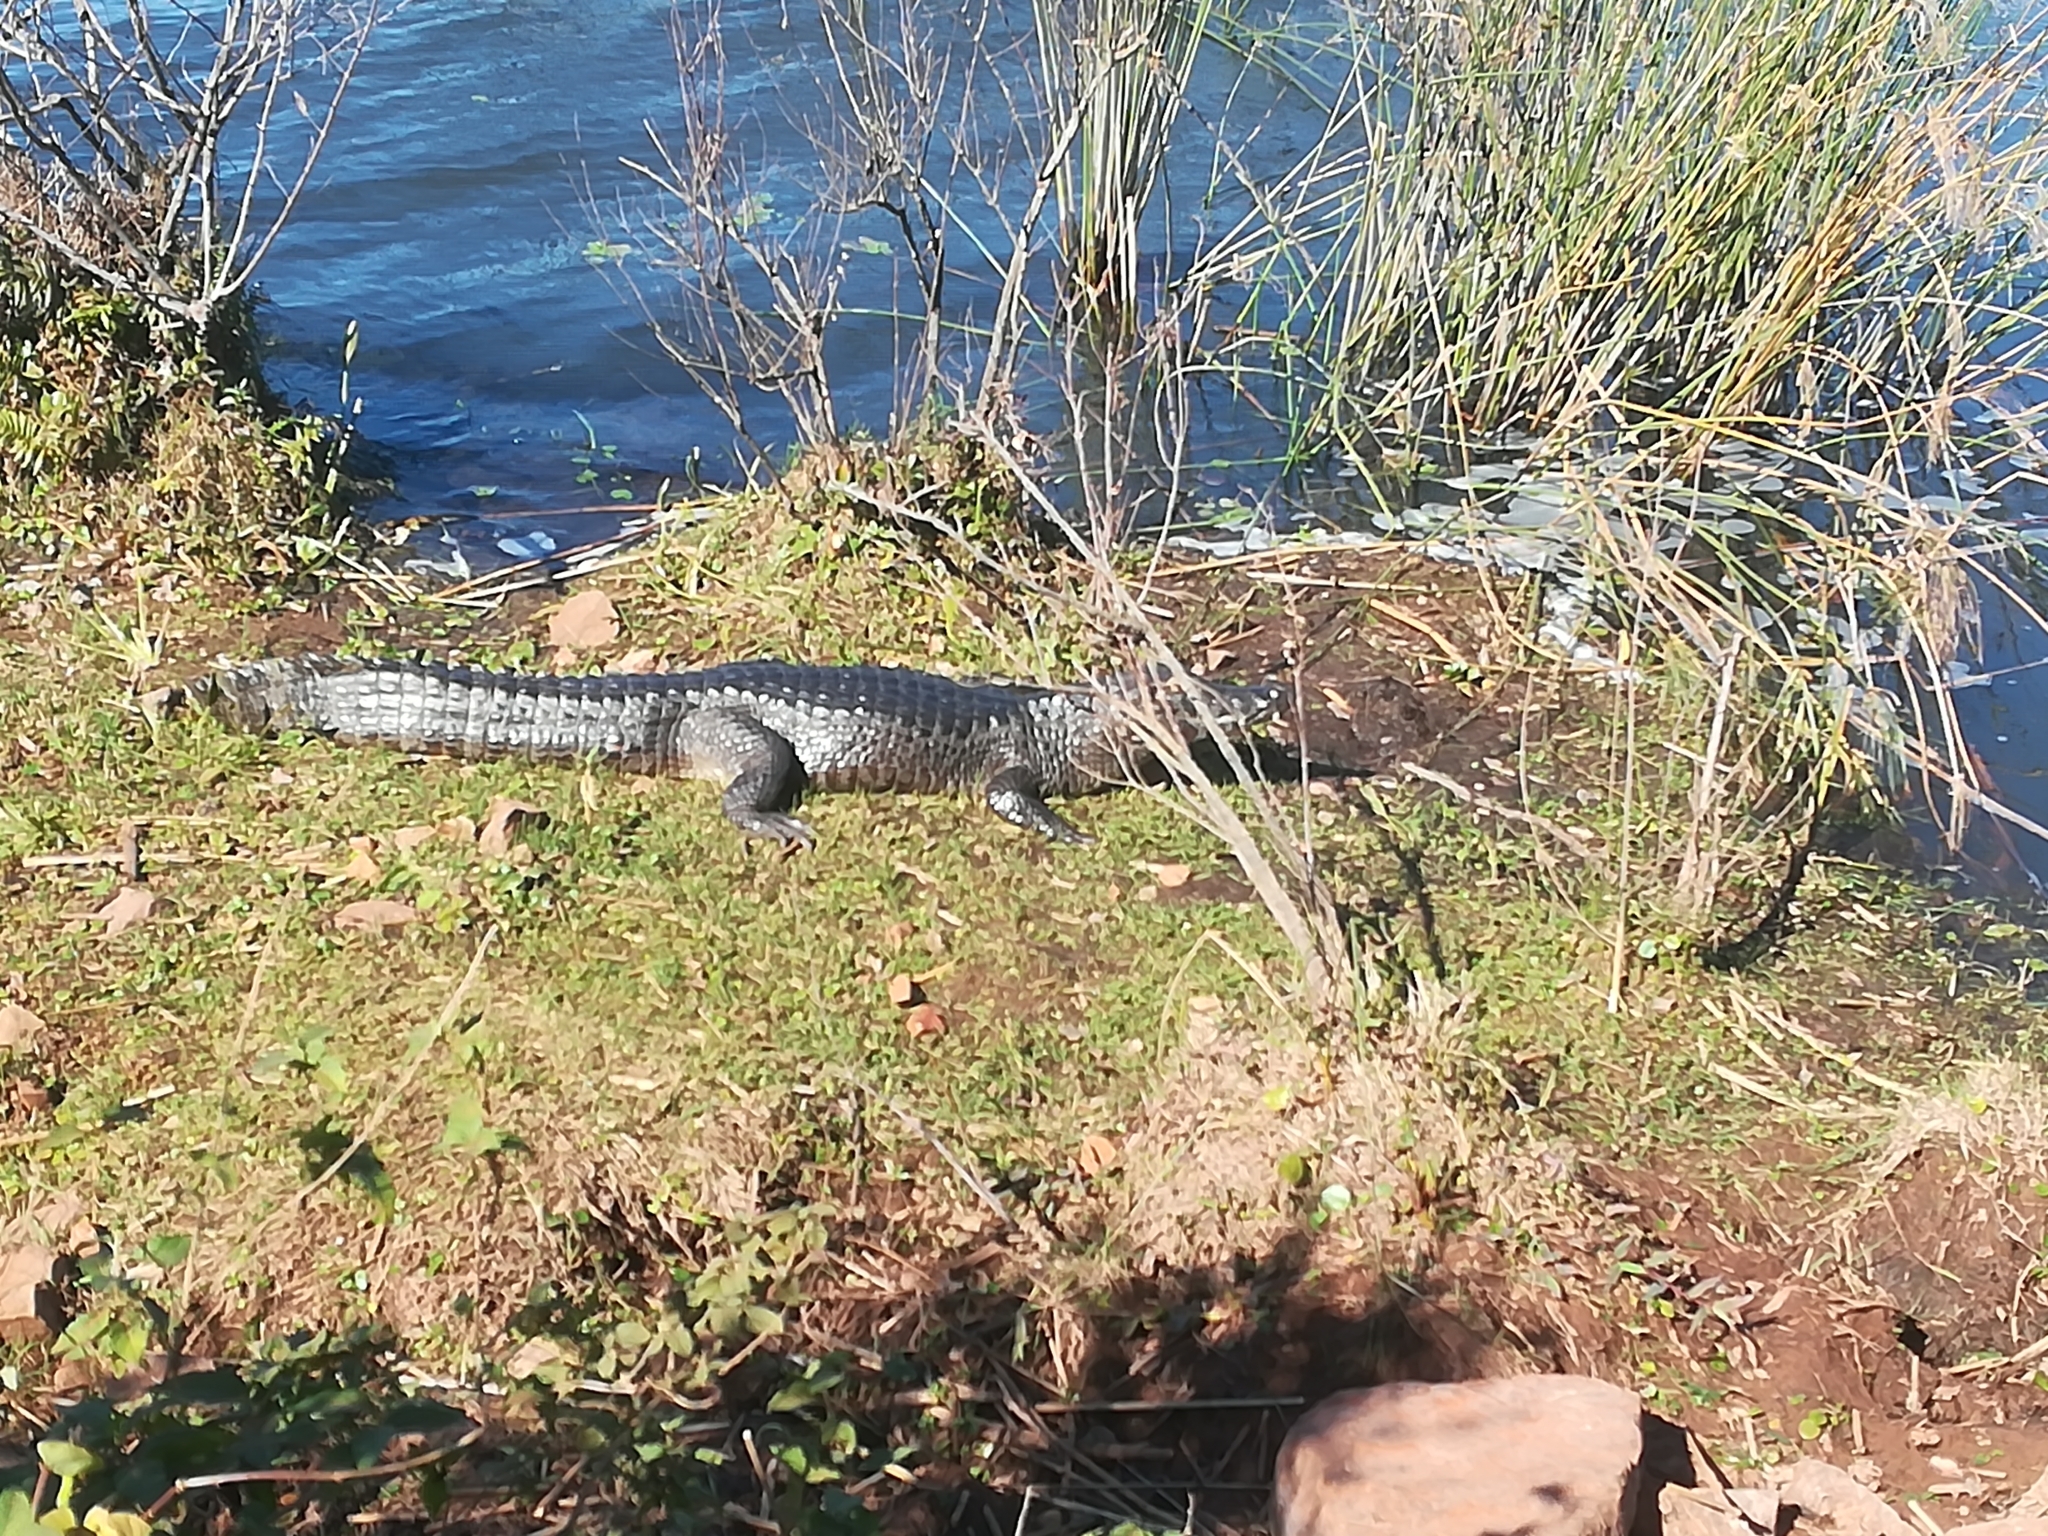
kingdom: Animalia
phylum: Chordata
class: Crocodylia
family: Alligatoridae
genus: Caiman
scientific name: Caiman yacare
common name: Yacare caiman
